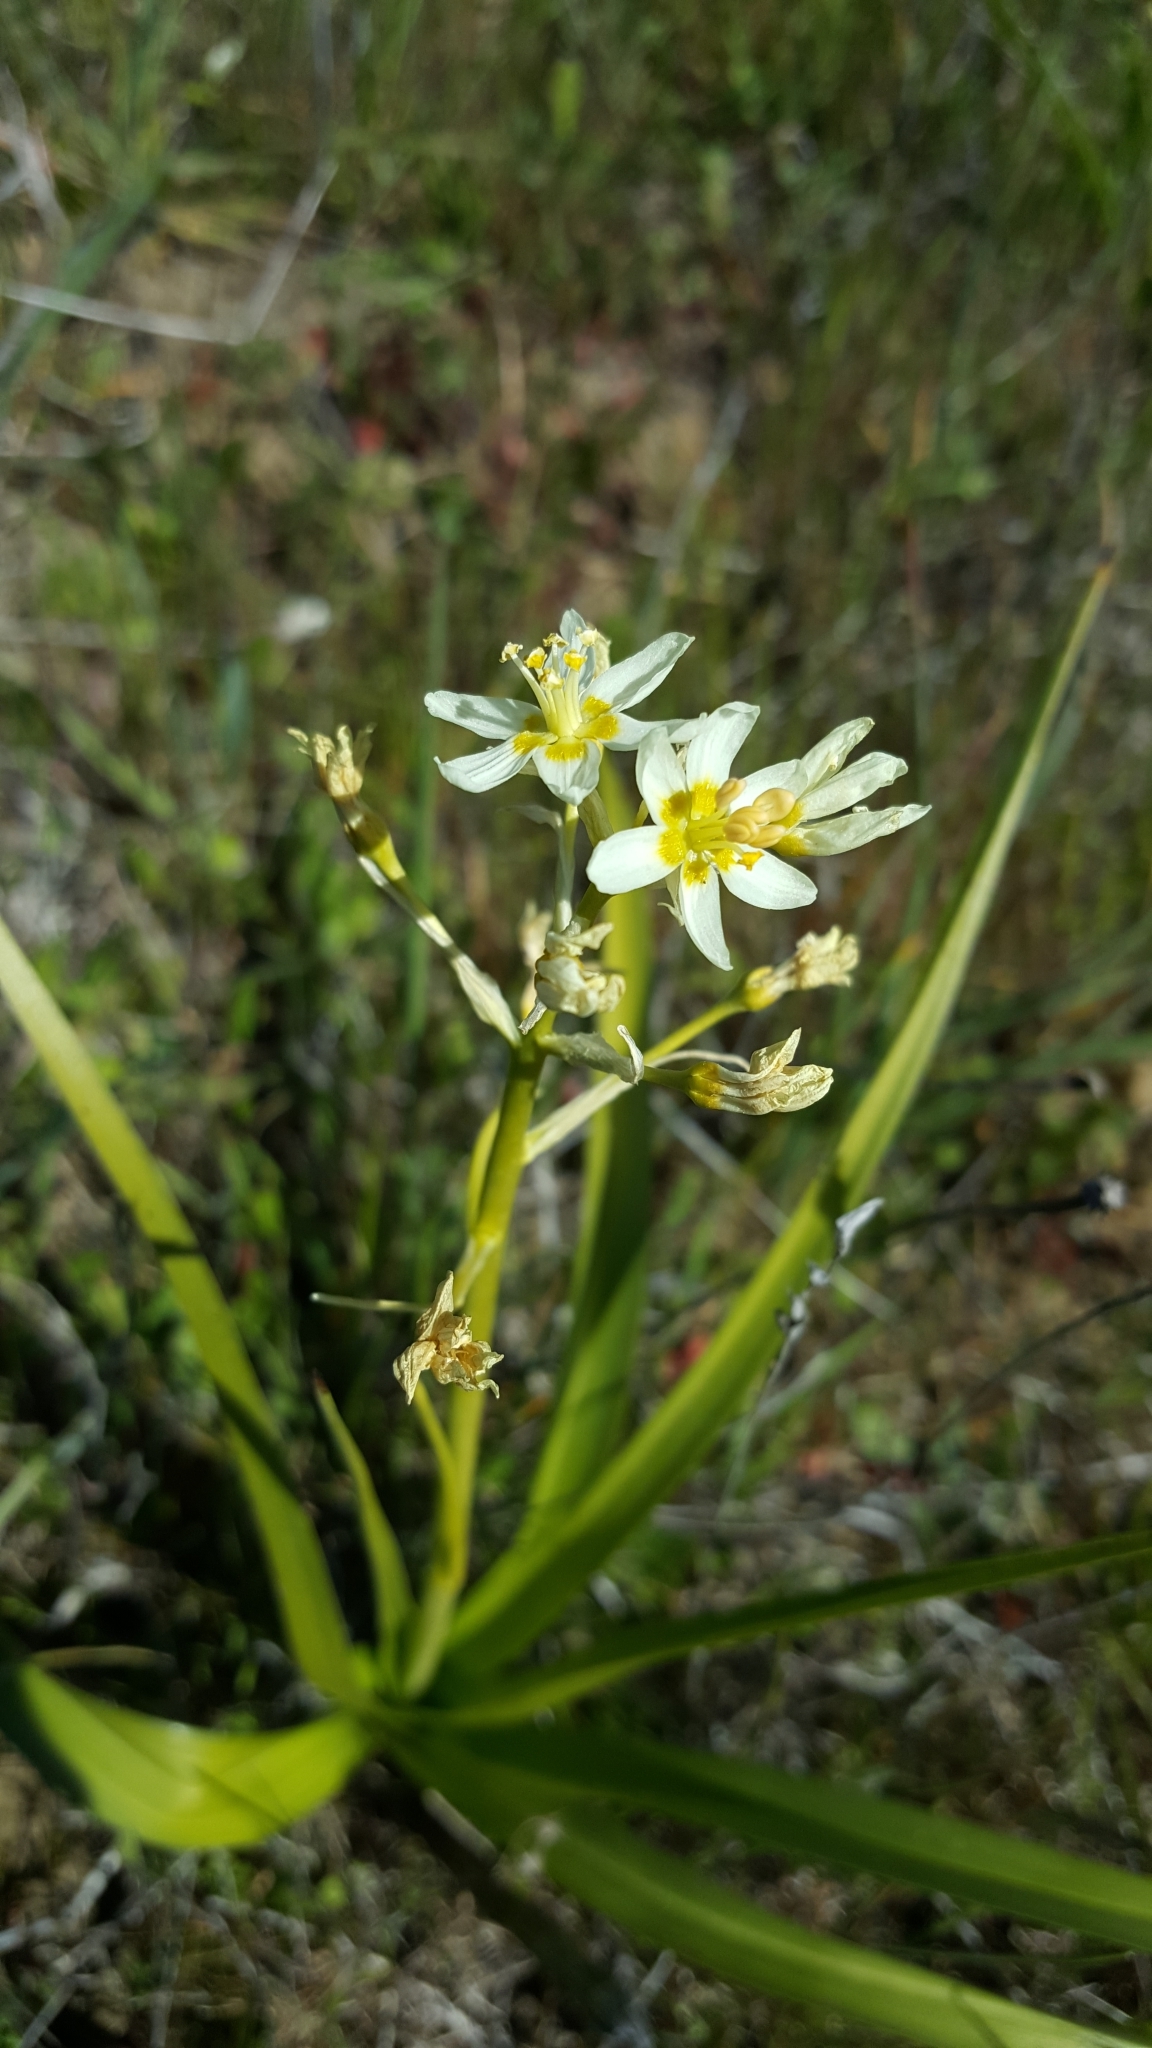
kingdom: Plantae
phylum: Tracheophyta
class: Liliopsida
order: Liliales
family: Melanthiaceae
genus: Toxicoscordion
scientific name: Toxicoscordion fremontii
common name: Fremont's death camas
